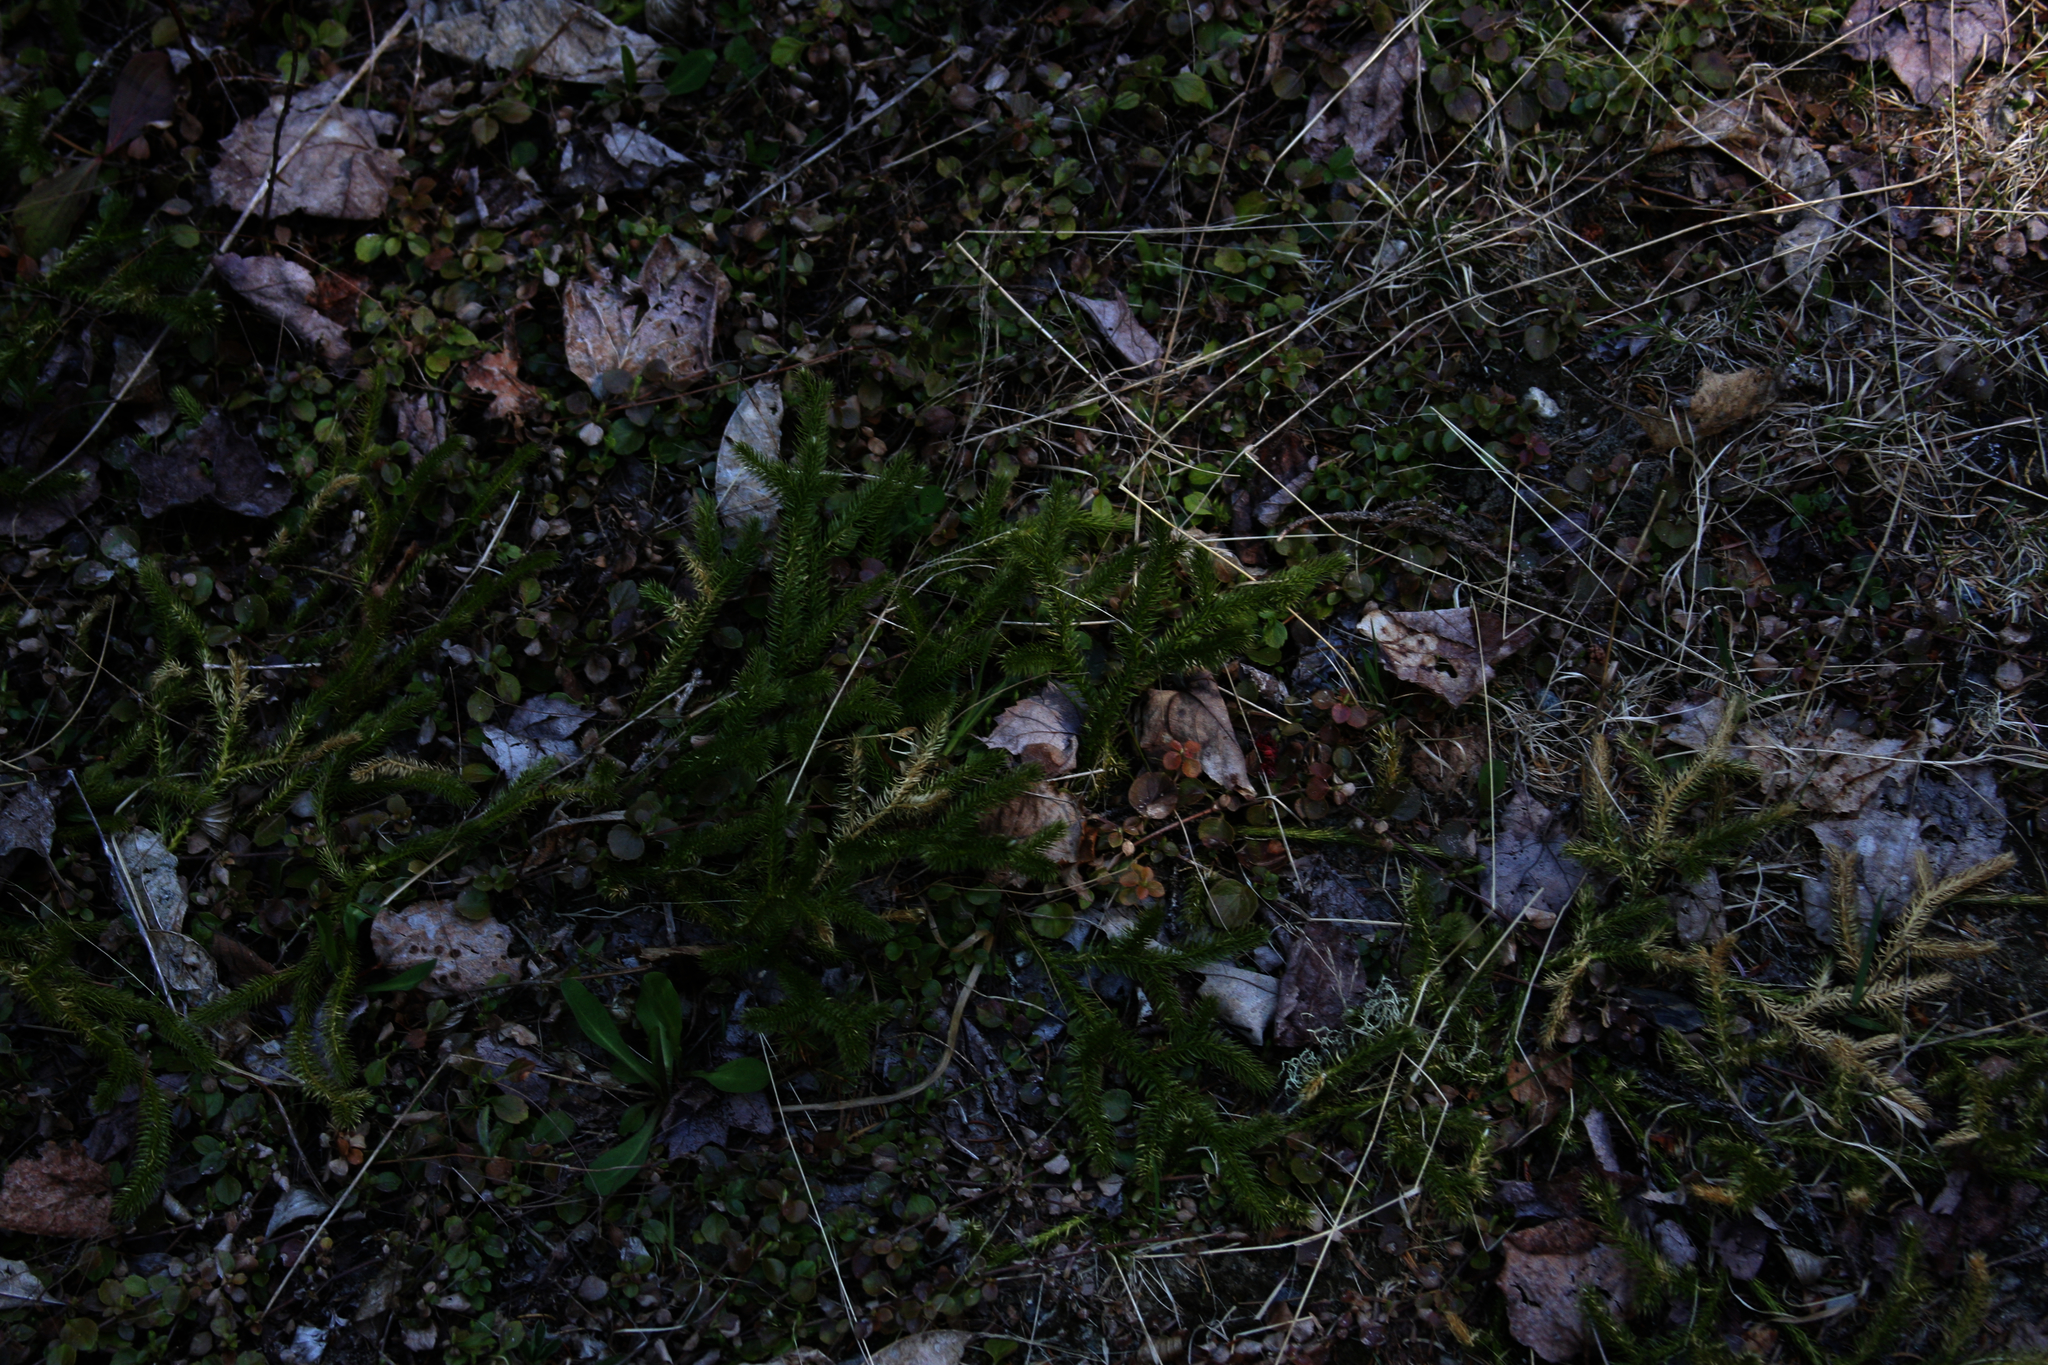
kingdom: Plantae
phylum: Tracheophyta
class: Lycopodiopsida
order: Lycopodiales
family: Lycopodiaceae
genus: Lycopodium
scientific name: Lycopodium clavatum
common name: Stag's-horn clubmoss
